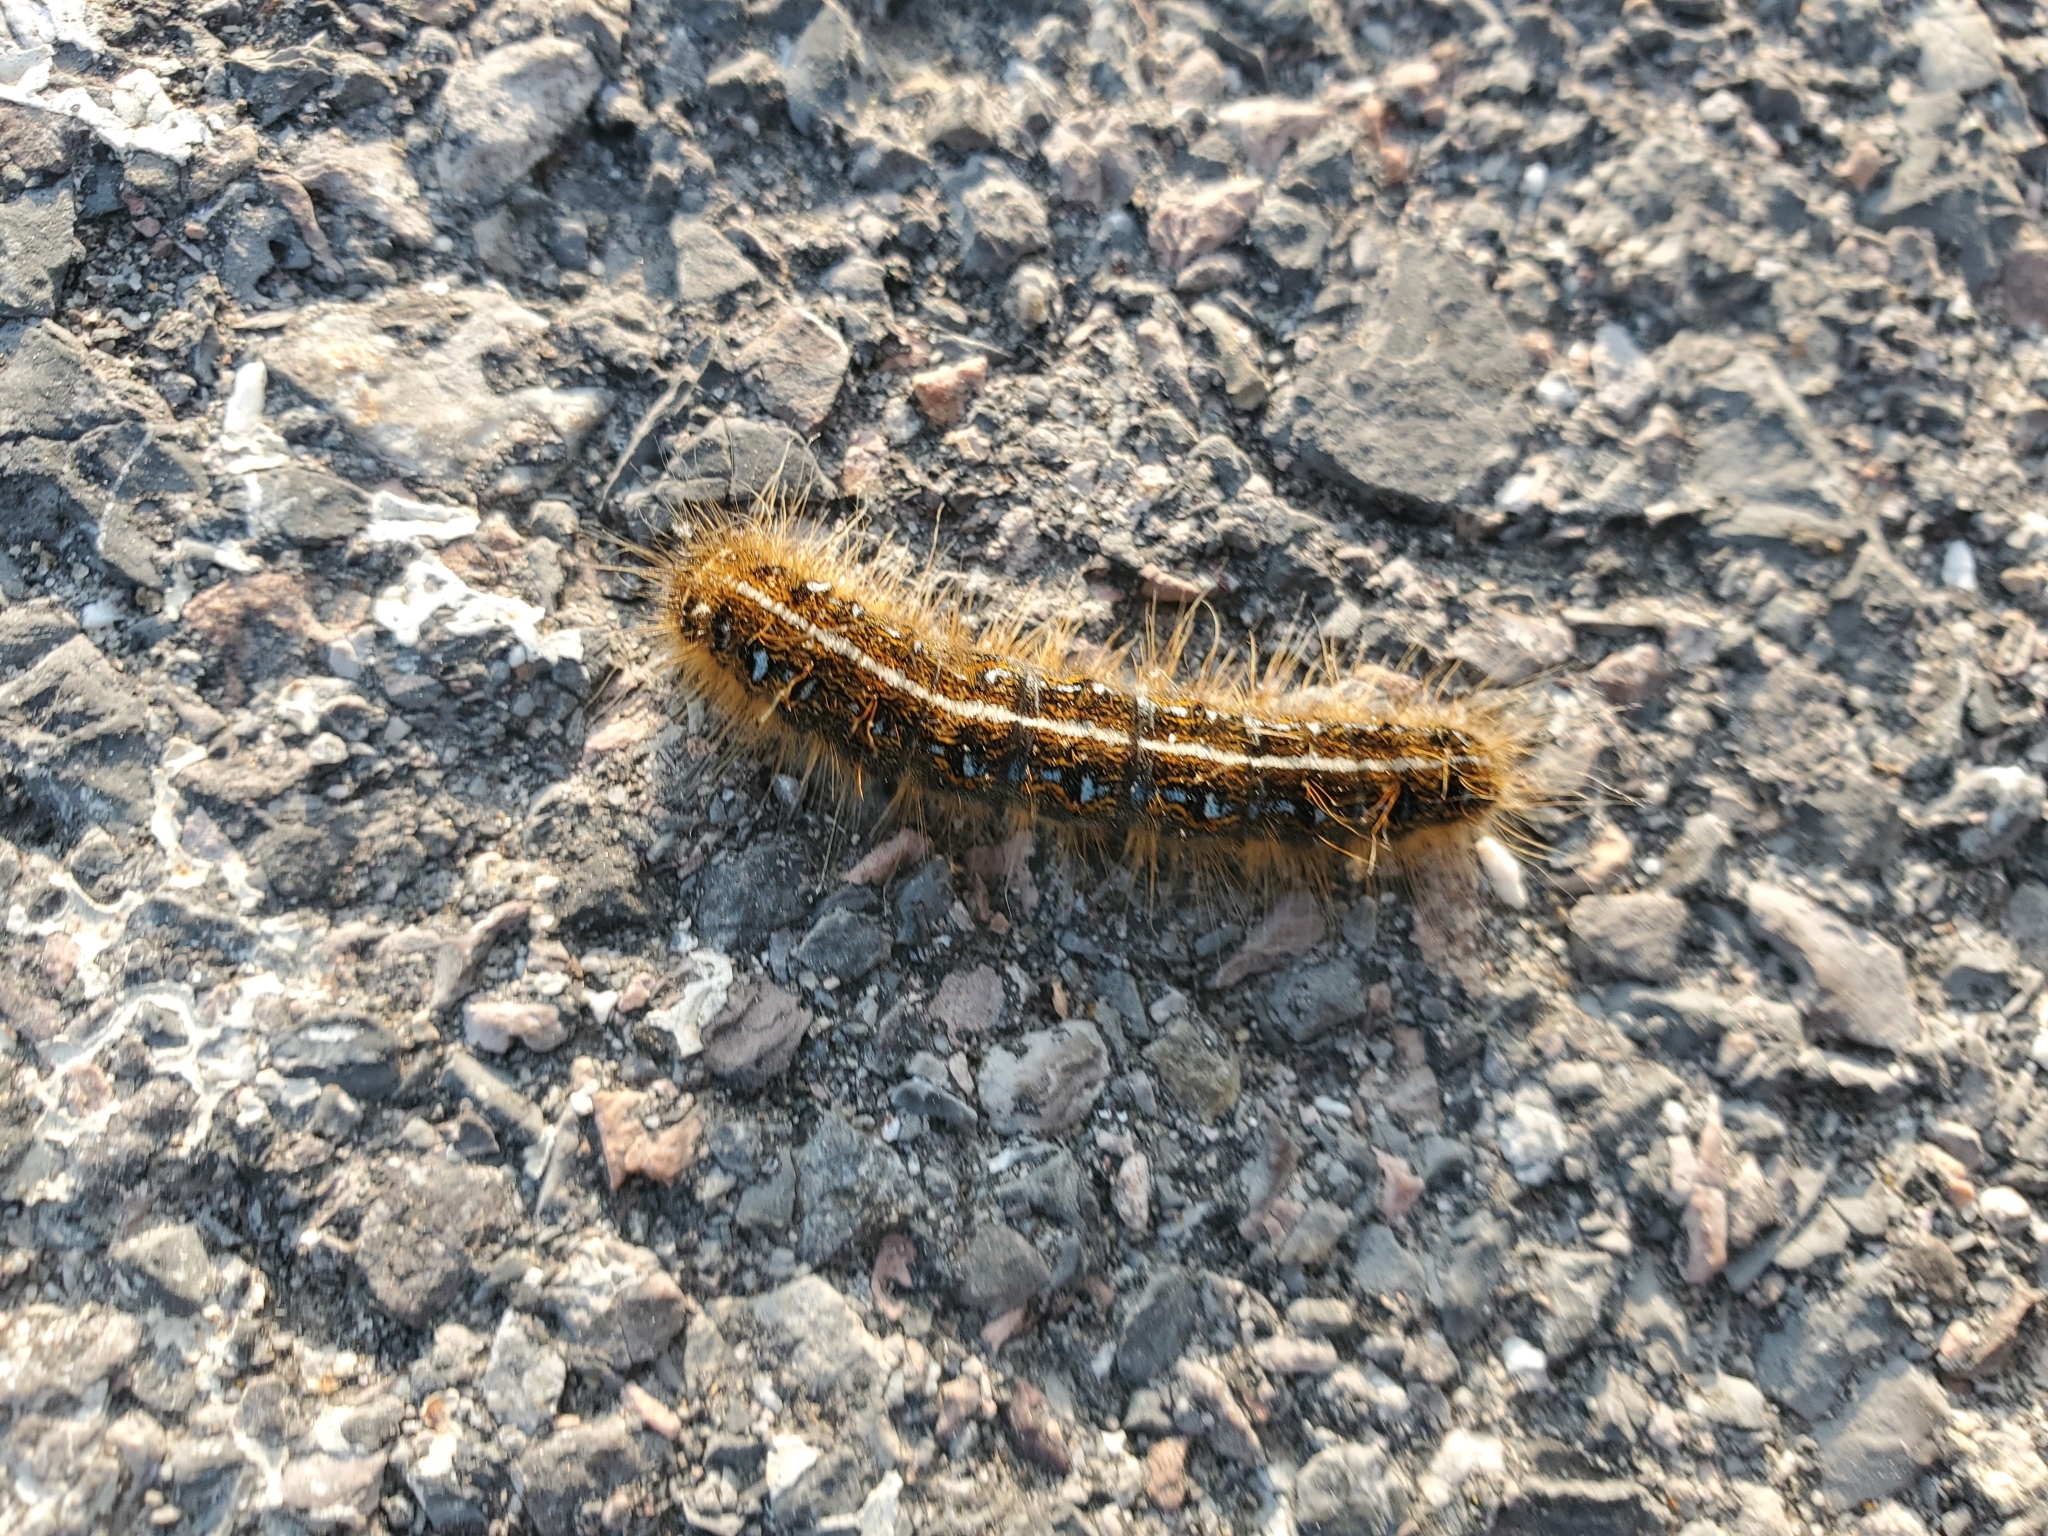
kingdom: Animalia
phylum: Arthropoda
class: Insecta
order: Lepidoptera
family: Lasiocampidae
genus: Malacosoma
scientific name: Malacosoma americana
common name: Eastern tent caterpillar moth
